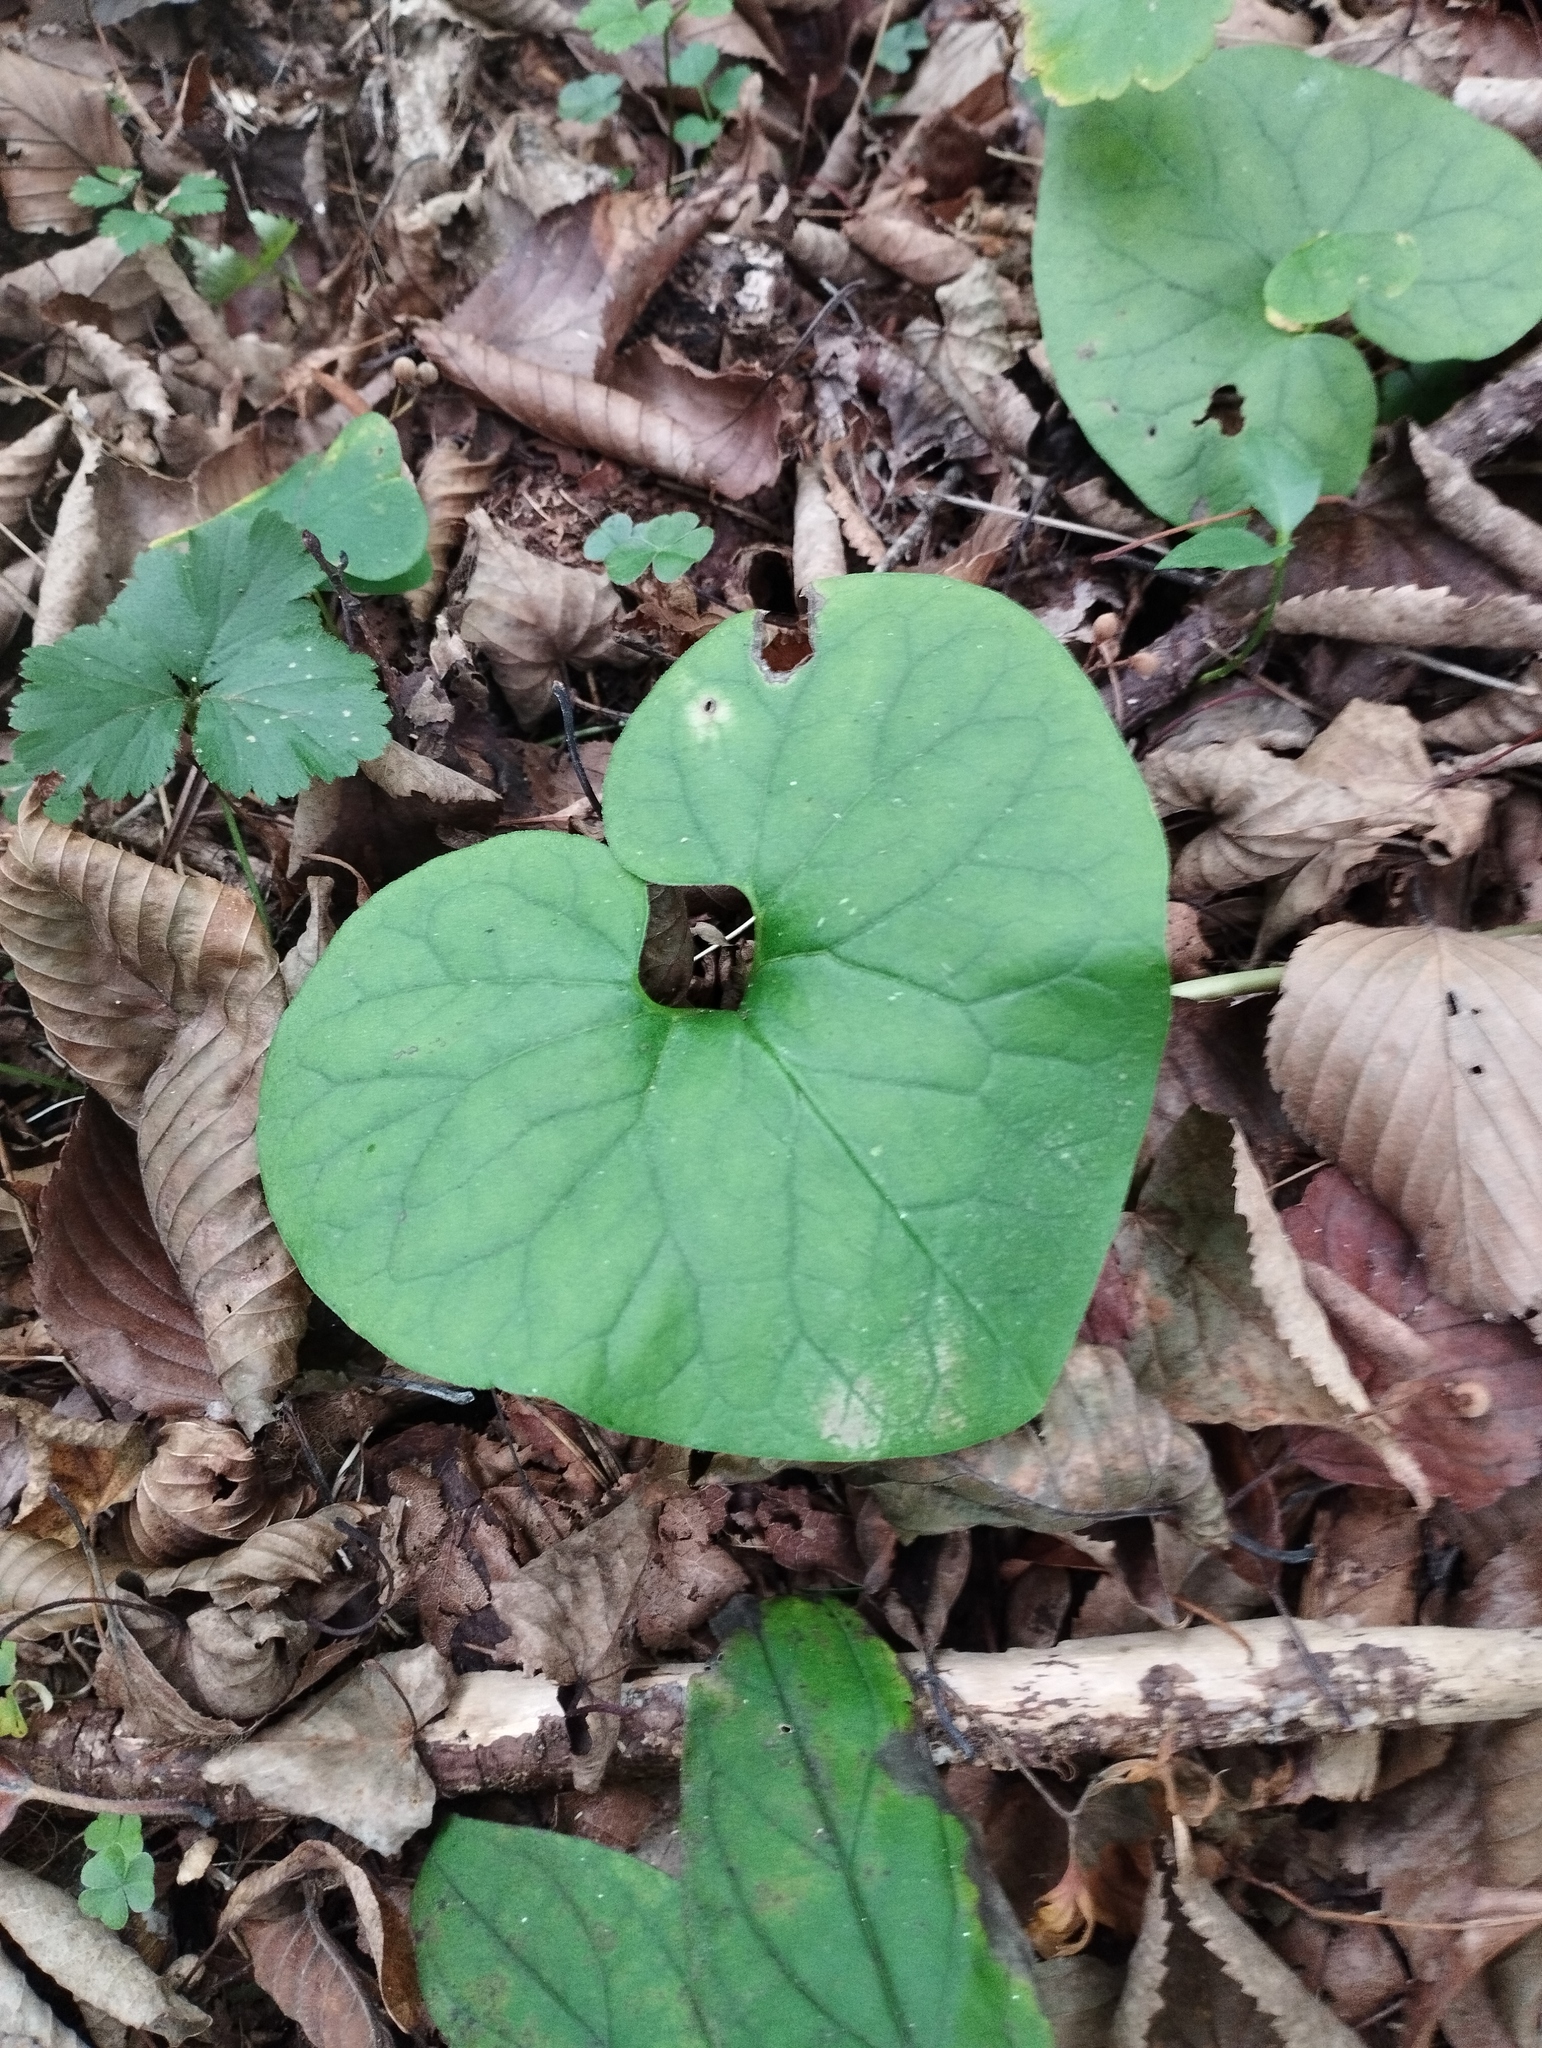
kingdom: Plantae
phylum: Tracheophyta
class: Magnoliopsida
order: Piperales
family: Aristolochiaceae
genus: Asarum
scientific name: Asarum sieboldii
